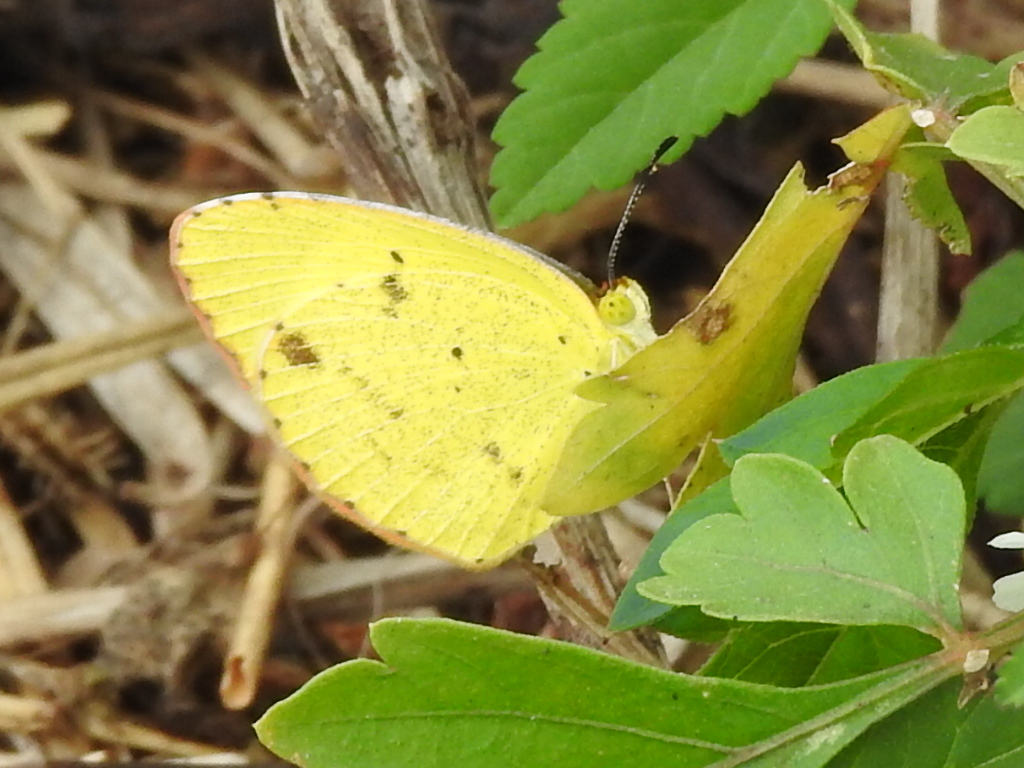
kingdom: Animalia
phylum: Arthropoda
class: Insecta
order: Lepidoptera
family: Pieridae
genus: Pyrisitia
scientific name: Pyrisitia lisa
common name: Little yellow
